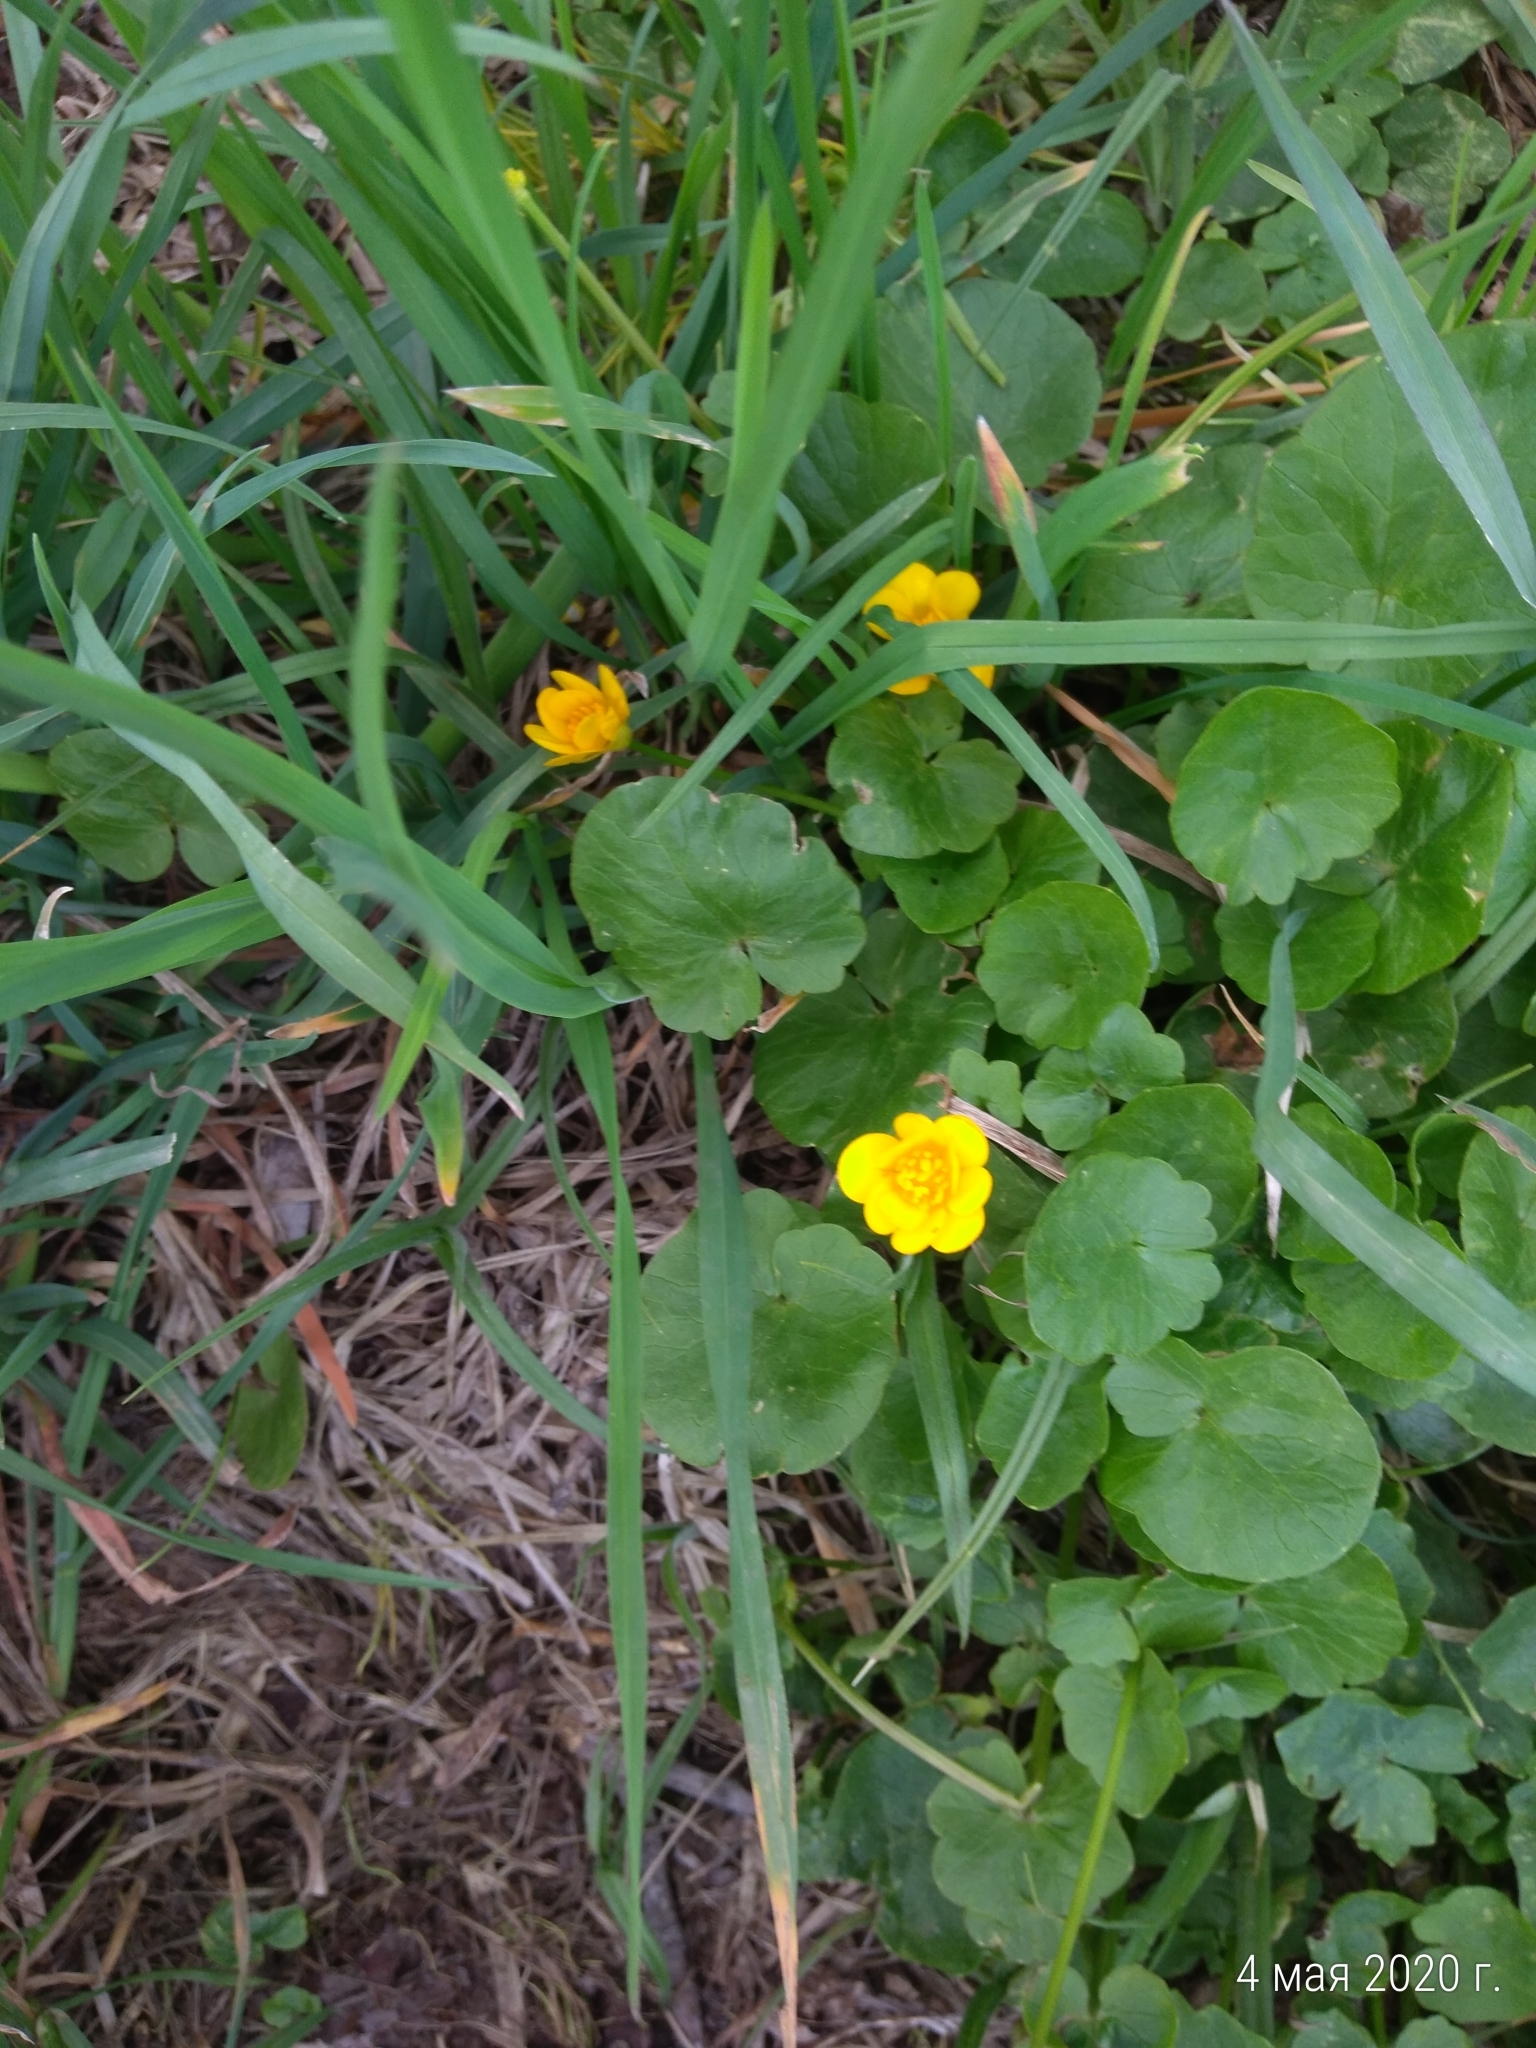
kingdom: Plantae
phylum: Tracheophyta
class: Magnoliopsida
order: Ranunculales
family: Ranunculaceae
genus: Ficaria
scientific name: Ficaria verna
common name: Lesser celandine
